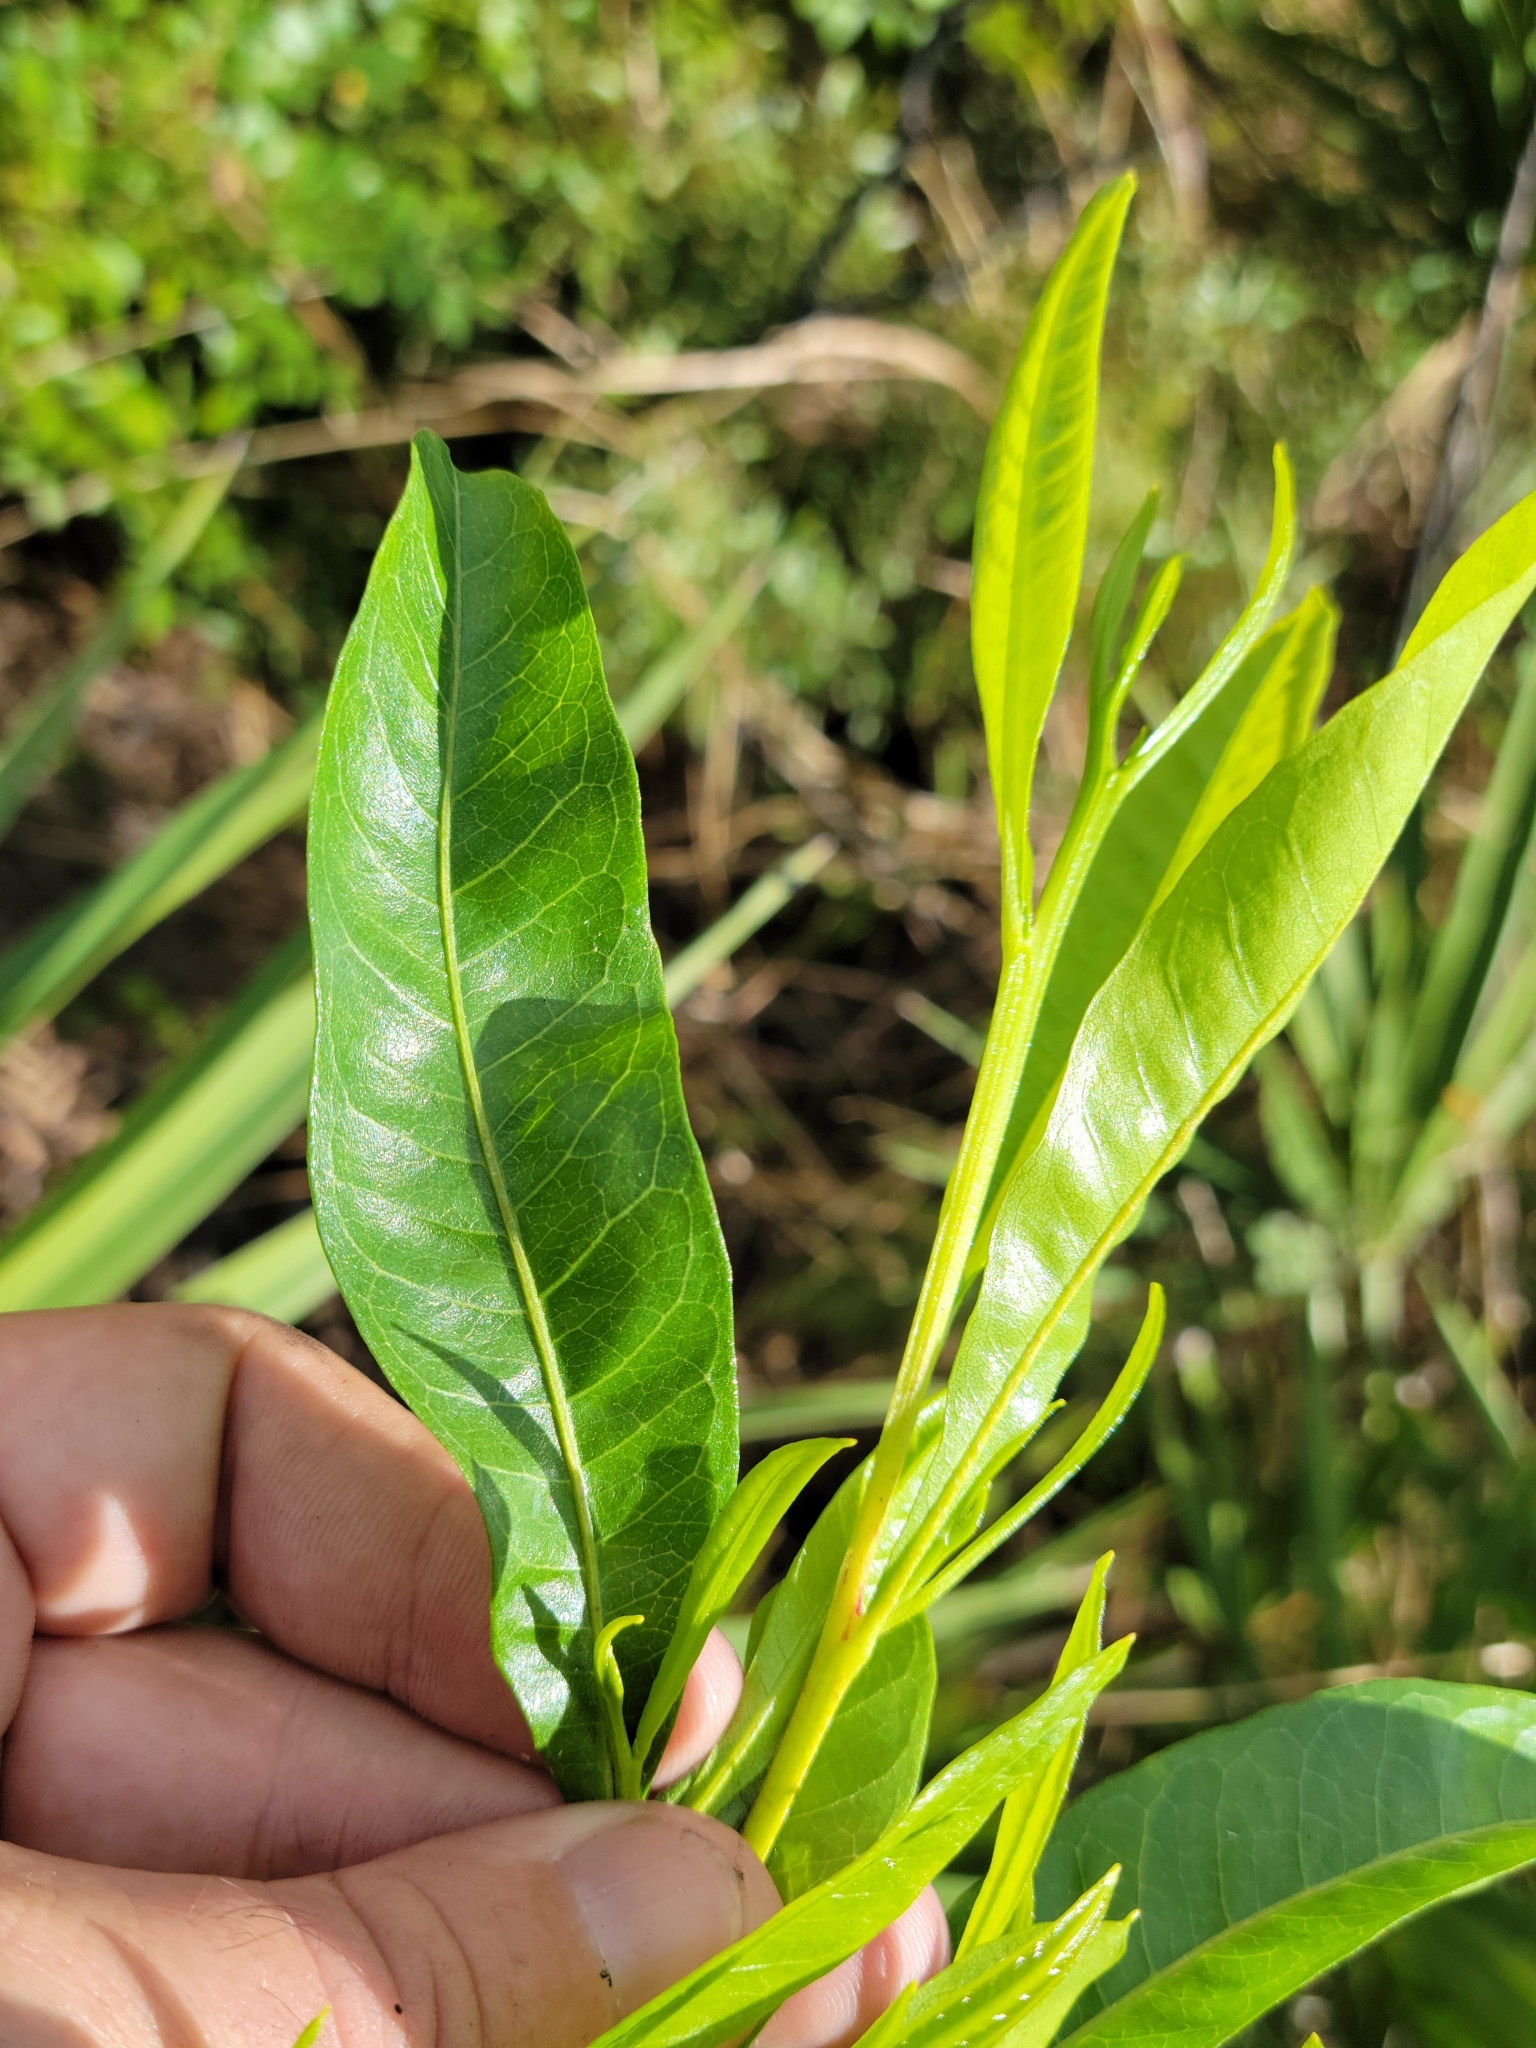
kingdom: Plantae
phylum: Tracheophyta
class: Magnoliopsida
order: Sapindales
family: Sapindaceae
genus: Dodonaea
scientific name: Dodonaea viscosa
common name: Hopbush
